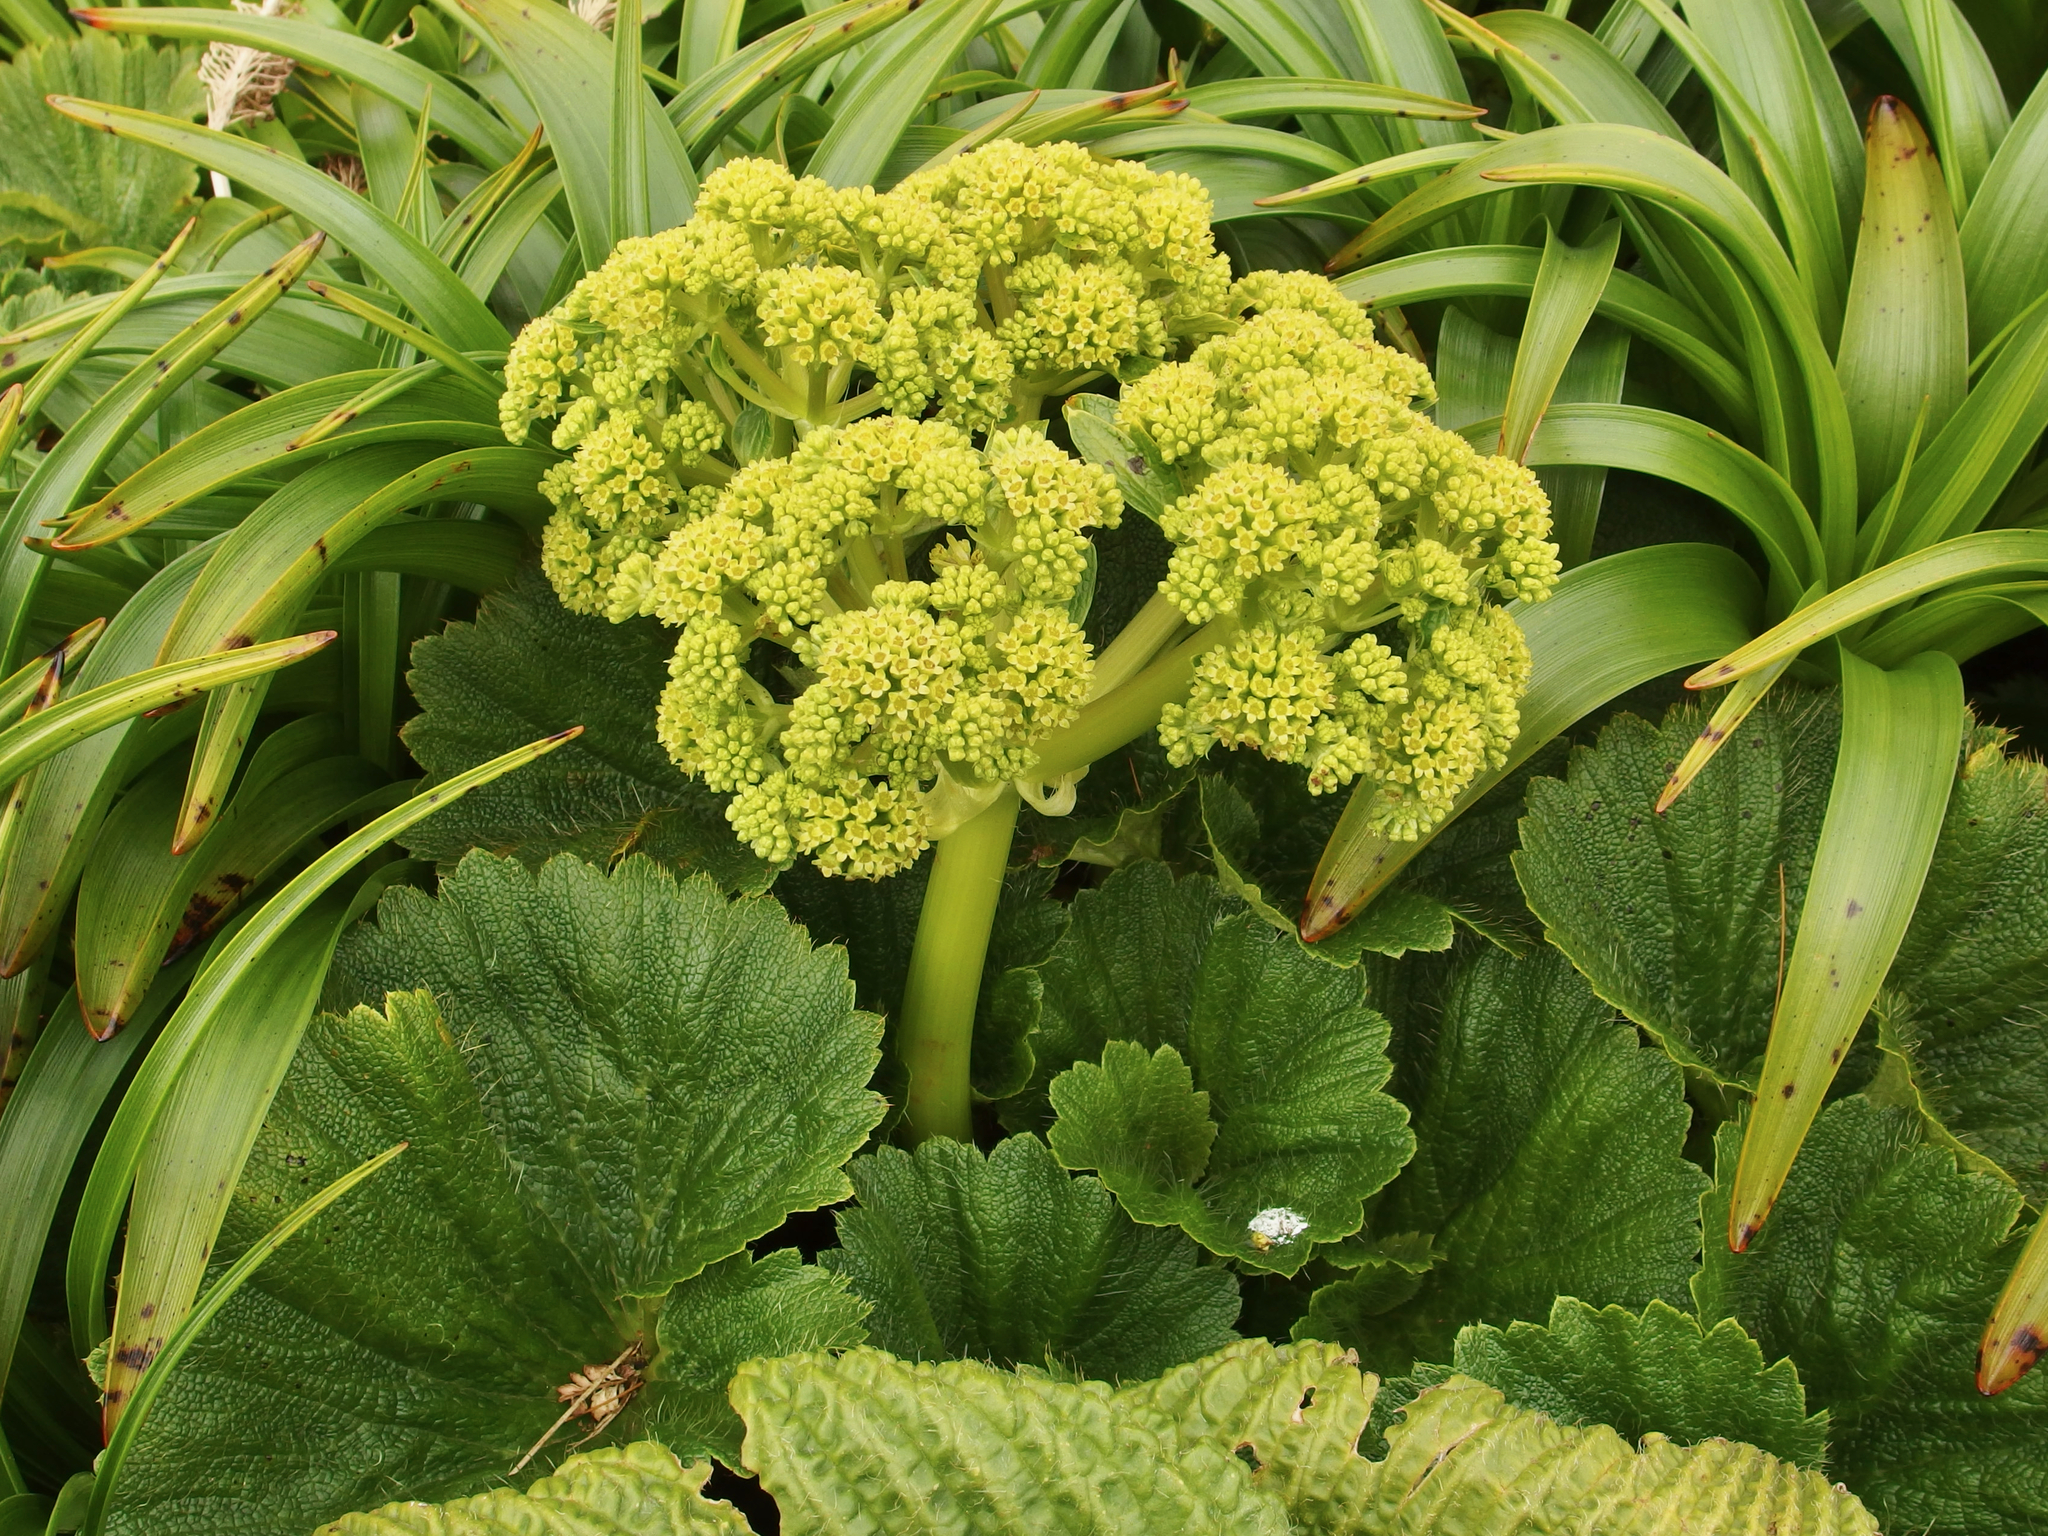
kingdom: Plantae
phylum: Tracheophyta
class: Magnoliopsida
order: Apiales
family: Apiaceae
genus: Azorella
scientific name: Azorella polaris
